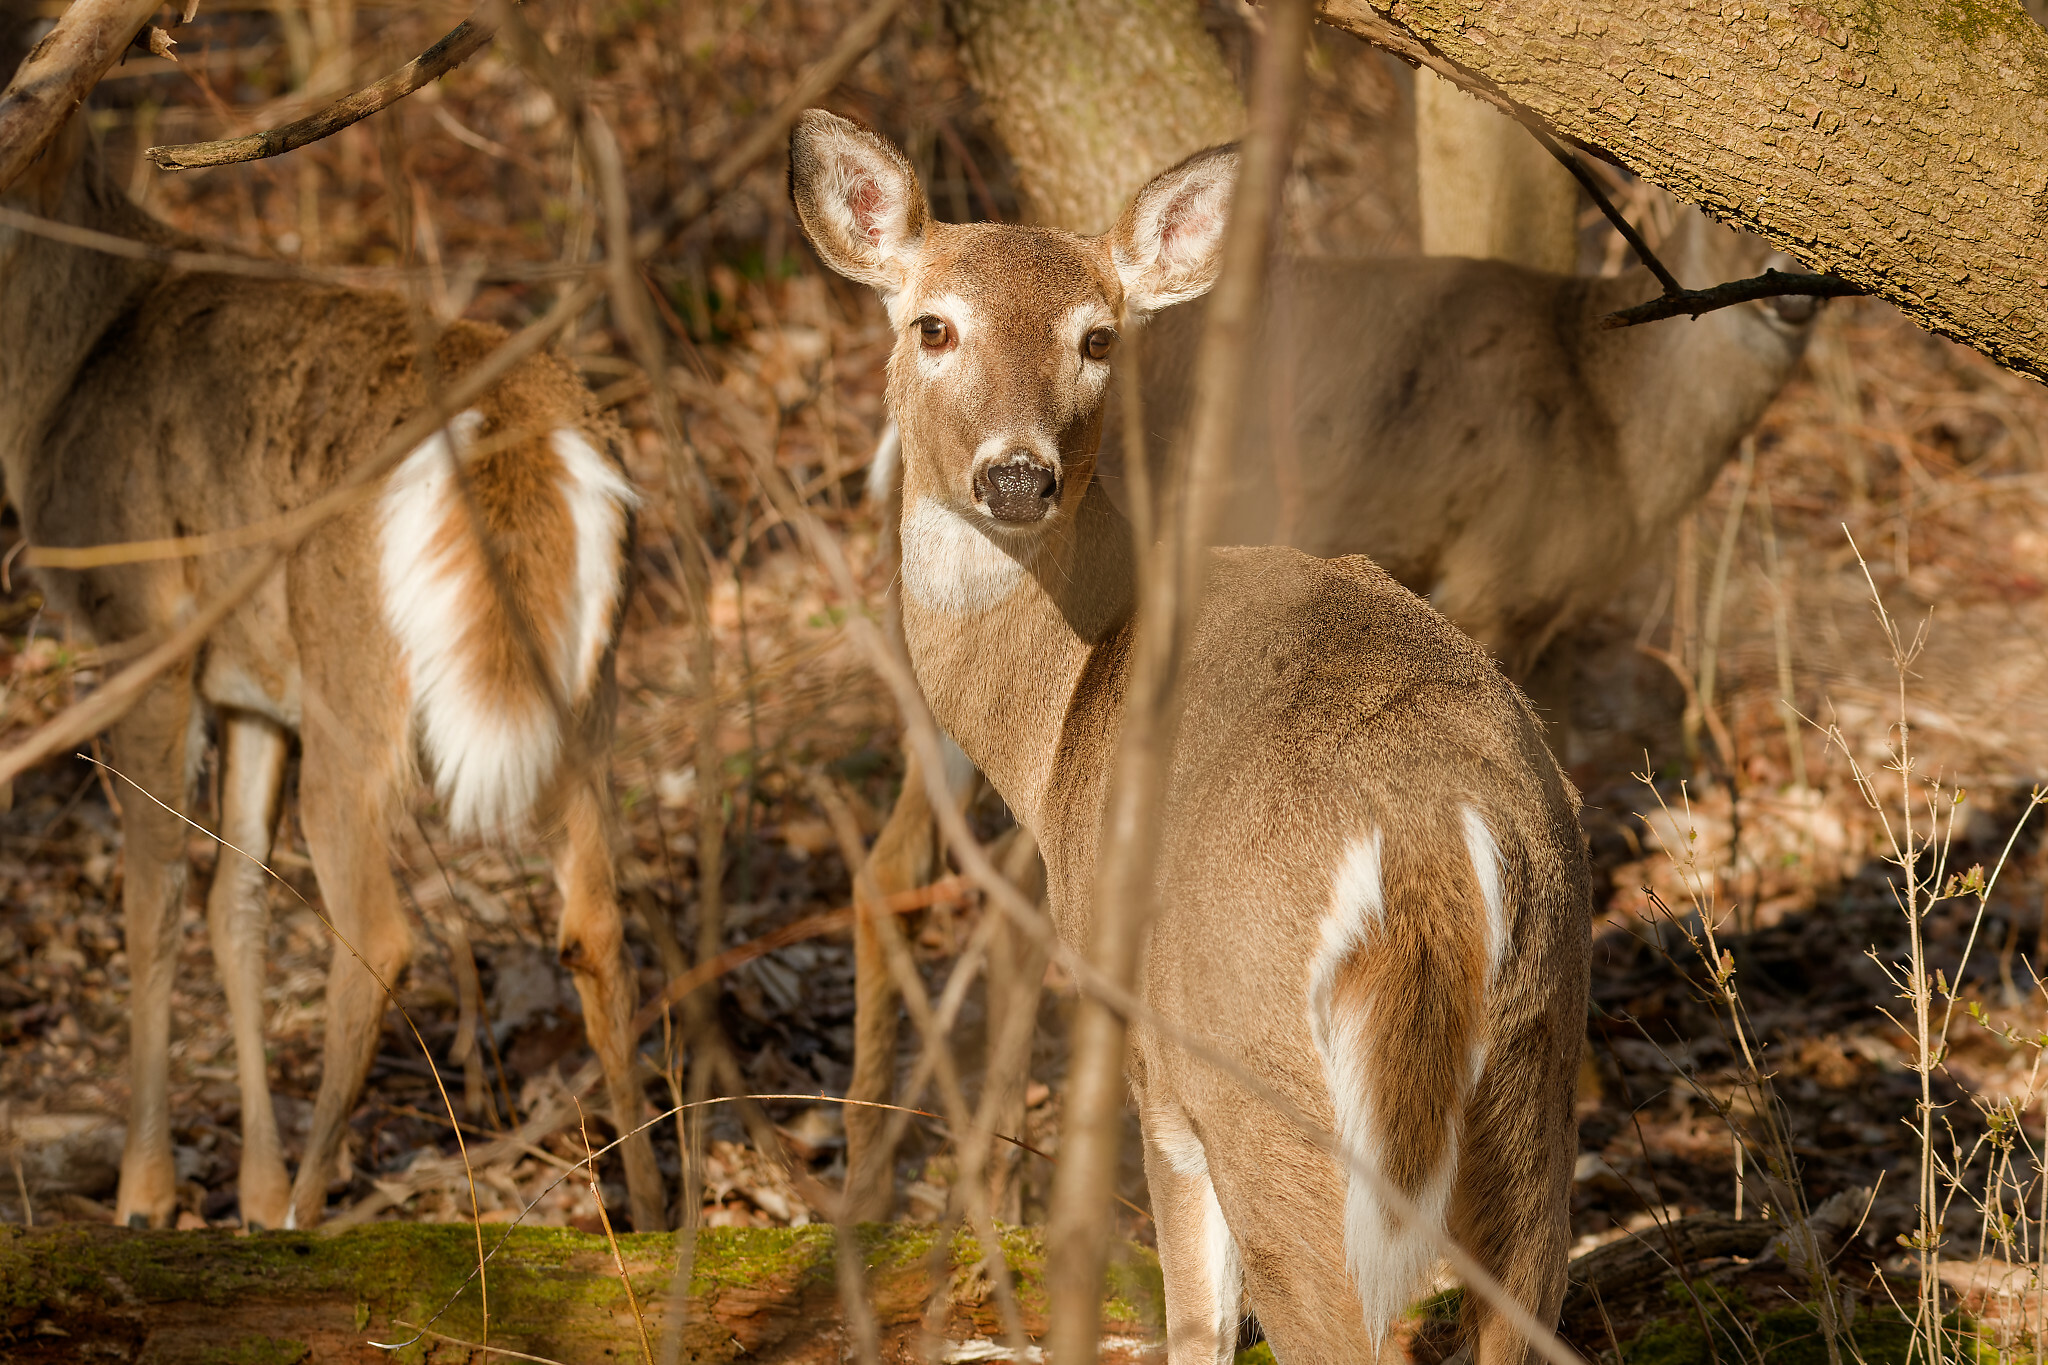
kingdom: Animalia
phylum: Chordata
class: Mammalia
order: Artiodactyla
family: Cervidae
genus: Odocoileus
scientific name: Odocoileus virginianus
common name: White-tailed deer
